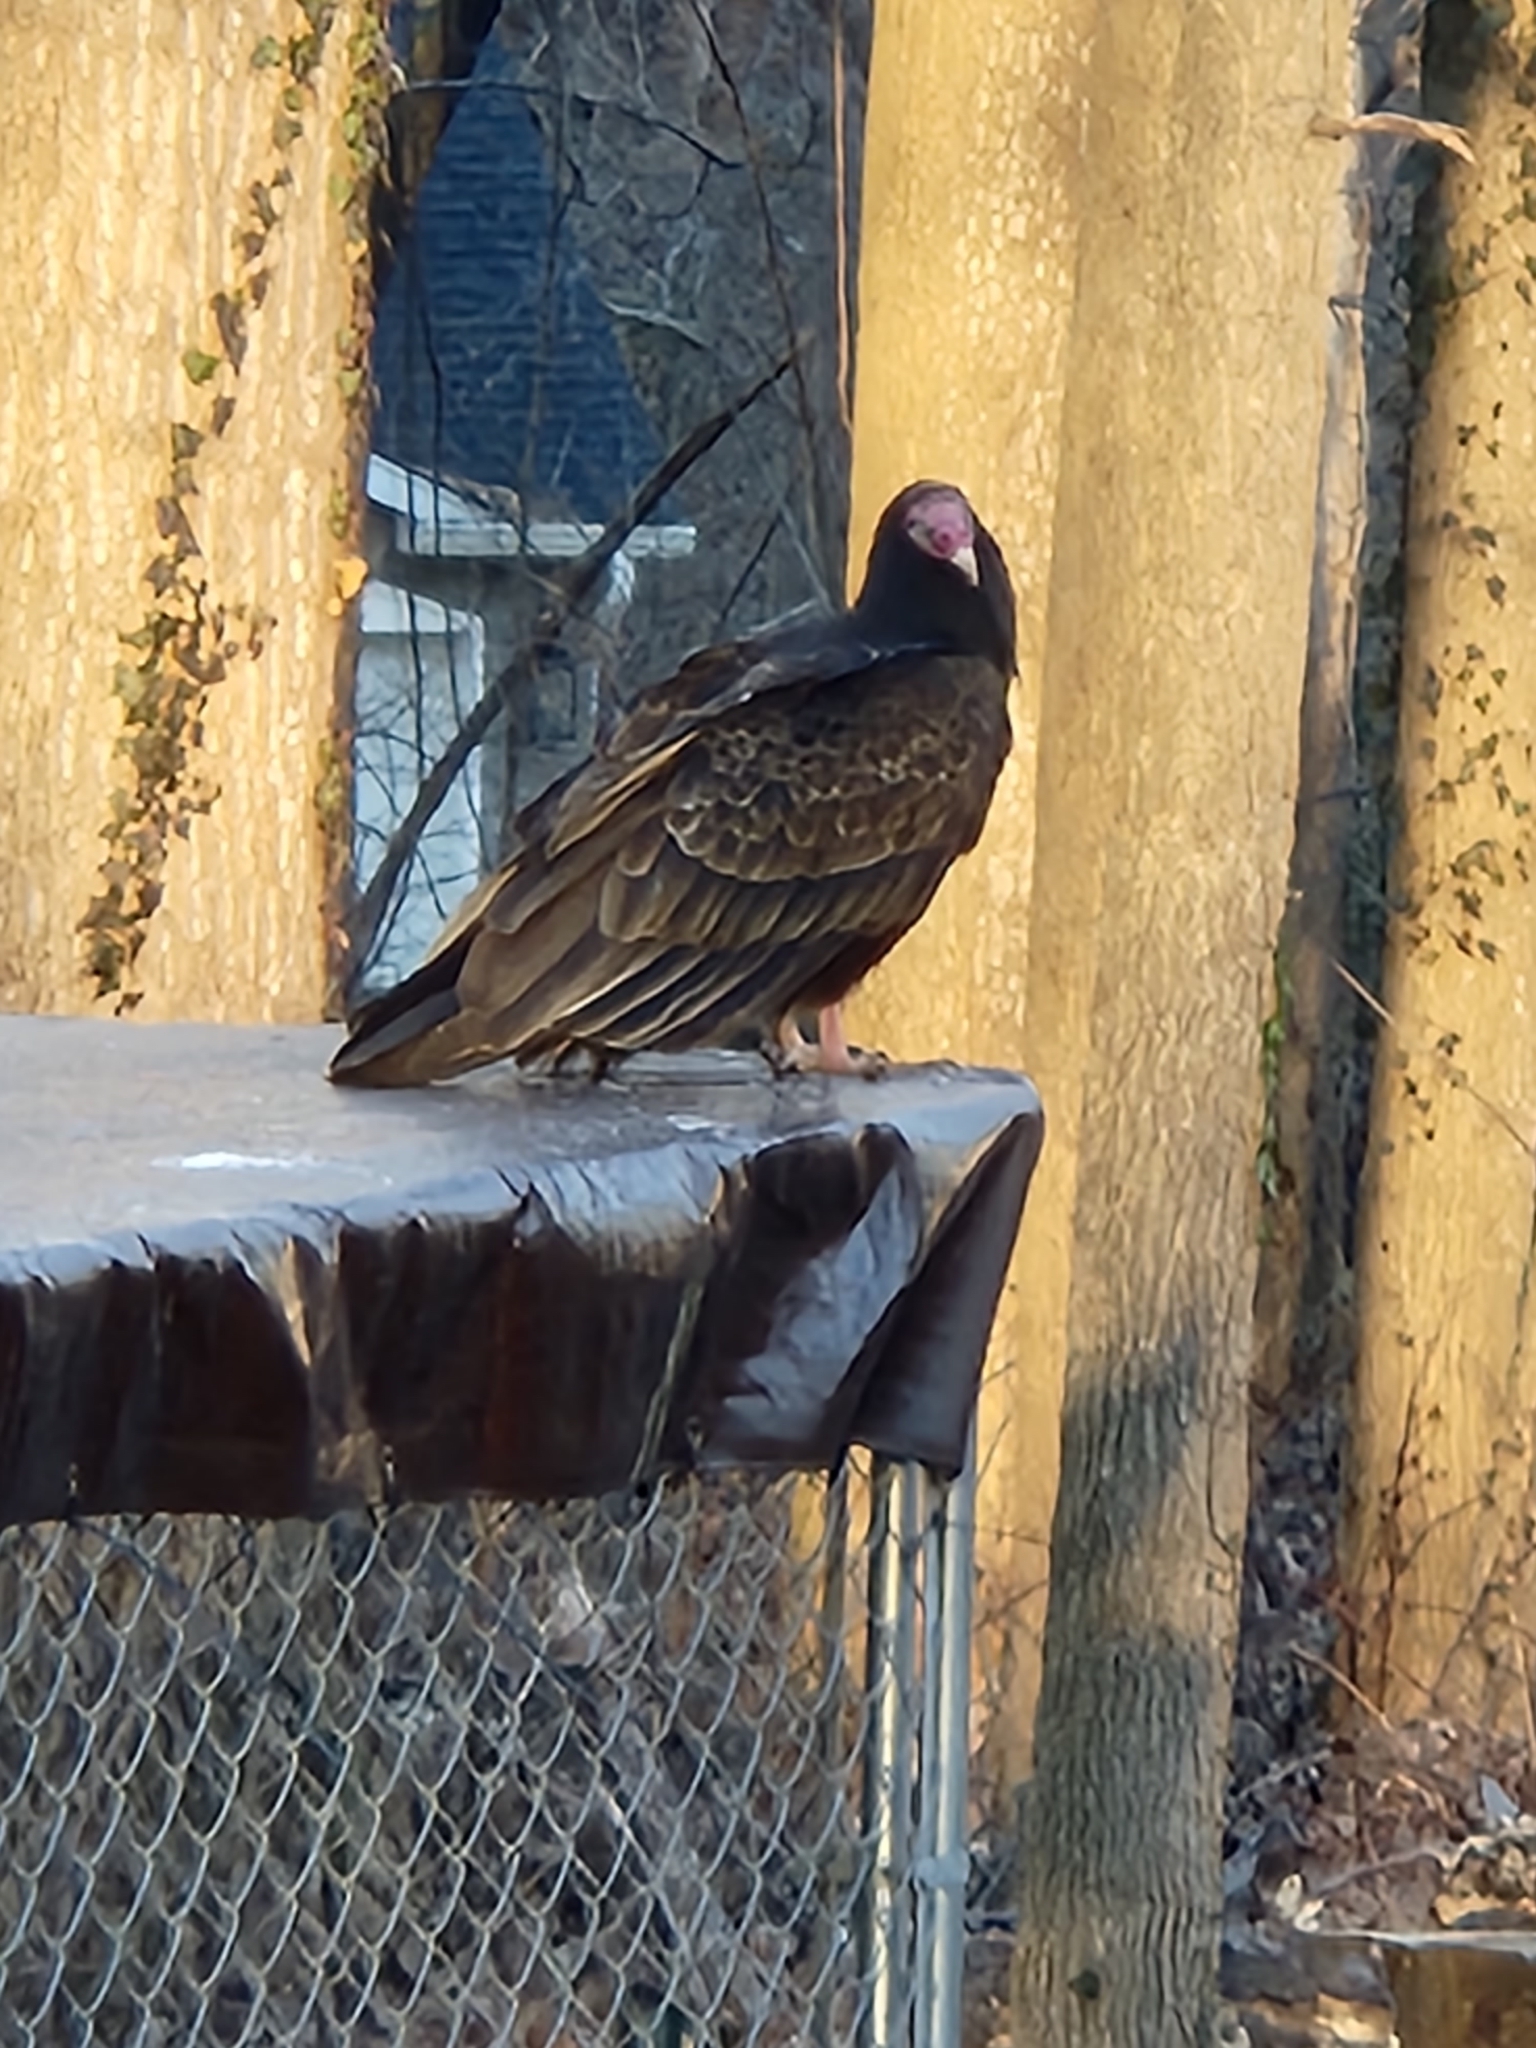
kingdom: Animalia
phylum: Chordata
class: Aves
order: Accipitriformes
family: Cathartidae
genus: Cathartes
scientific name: Cathartes aura
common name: Turkey vulture
